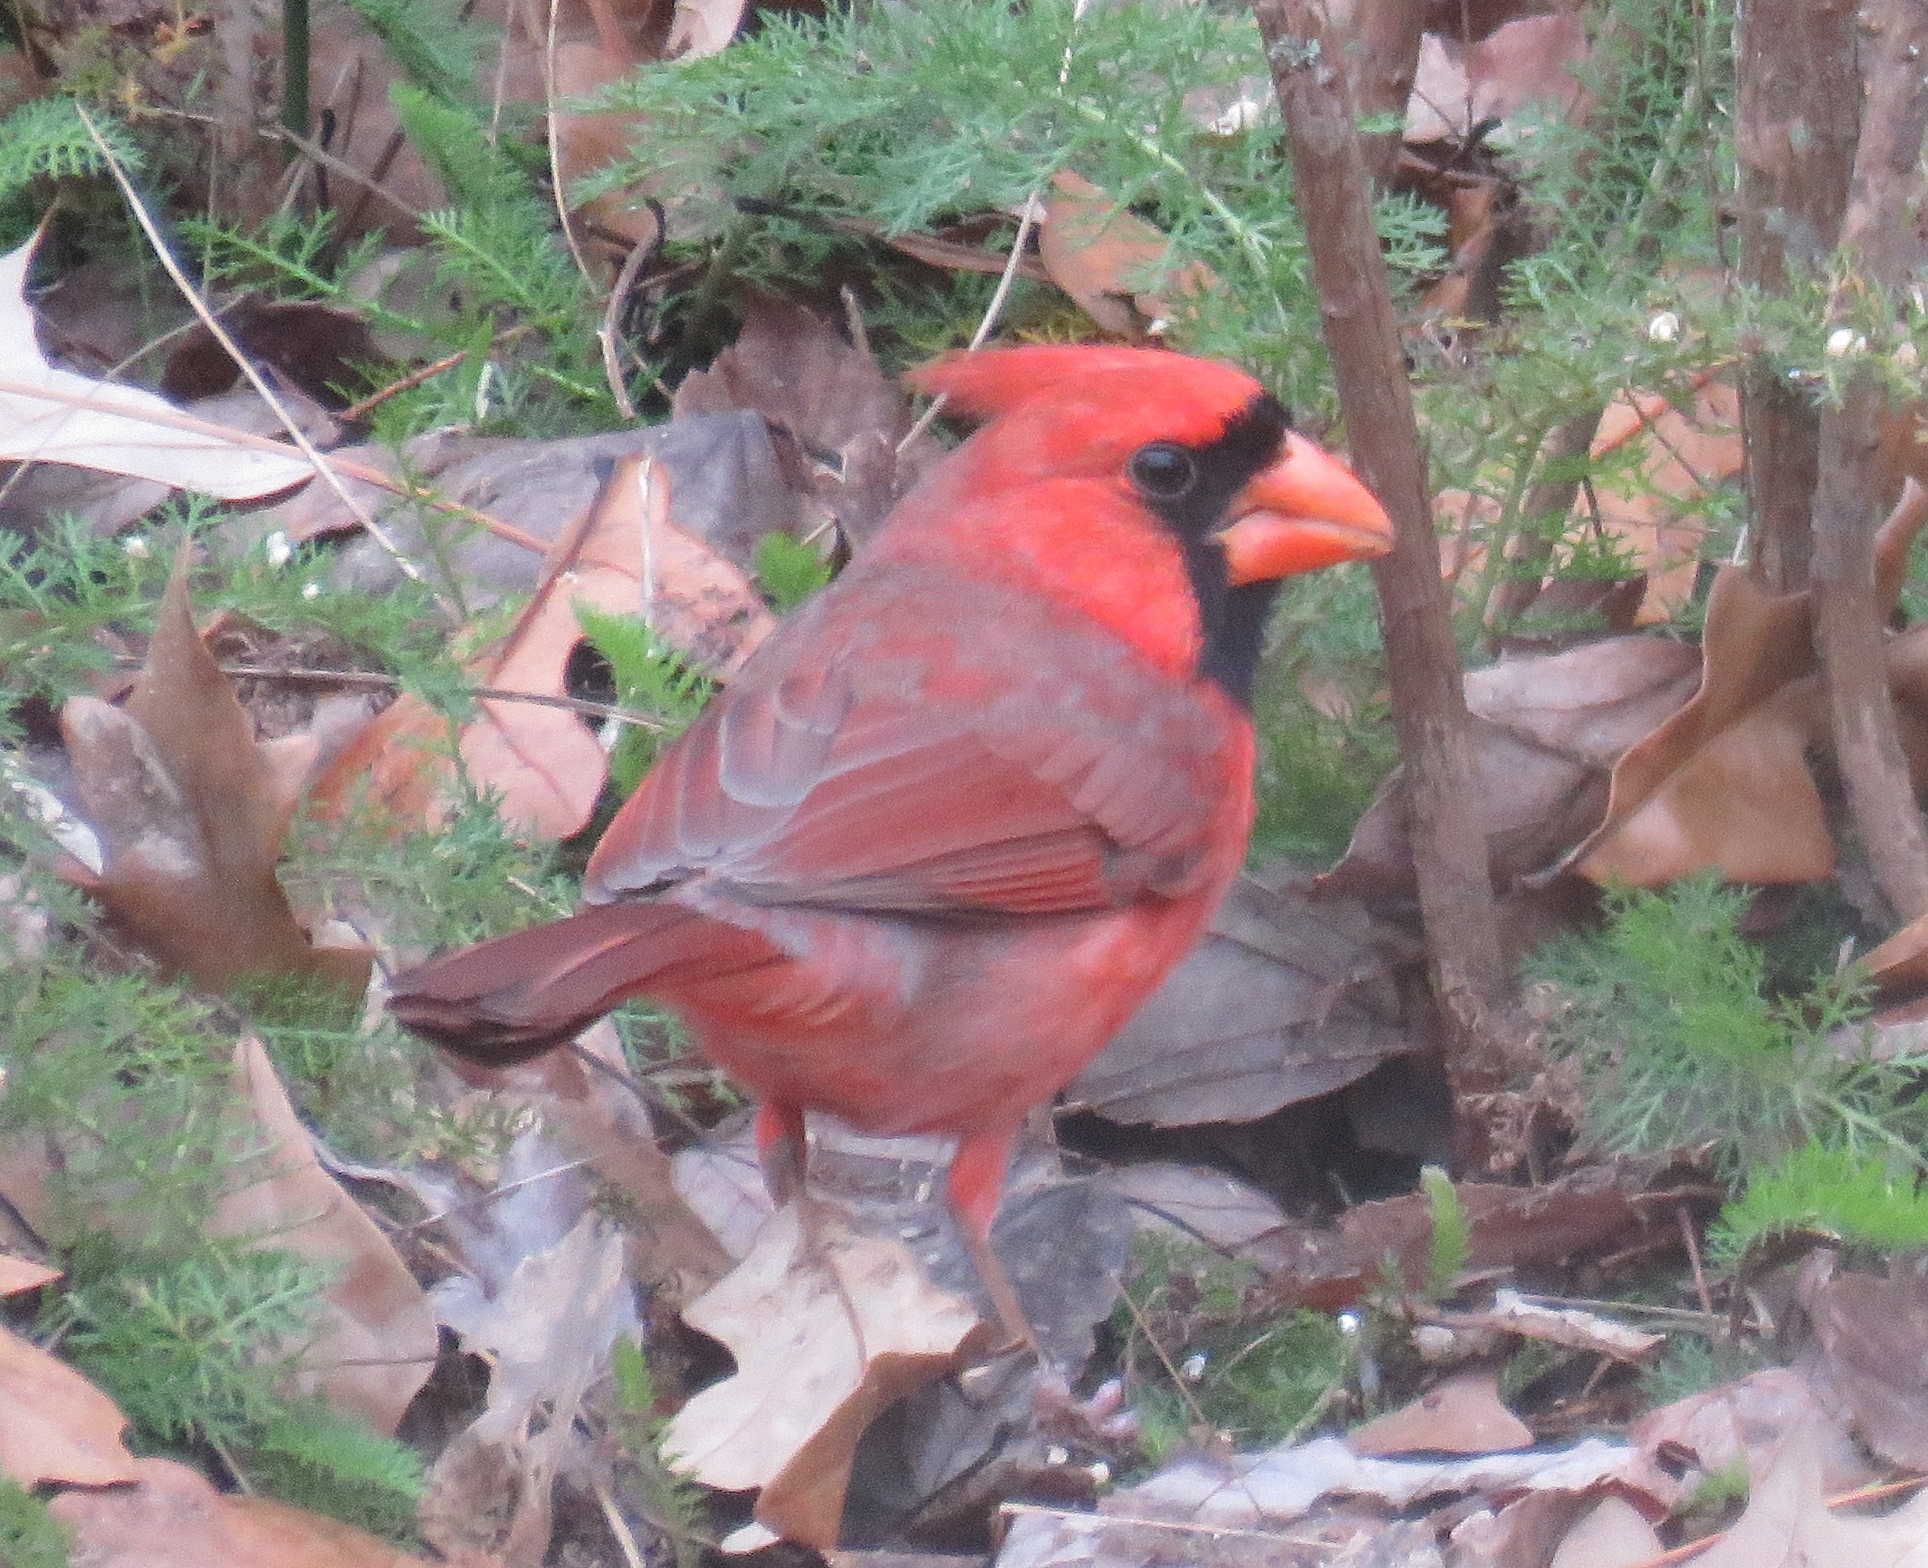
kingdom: Animalia
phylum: Chordata
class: Aves
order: Passeriformes
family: Cardinalidae
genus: Cardinalis
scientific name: Cardinalis cardinalis
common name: Northern cardinal
